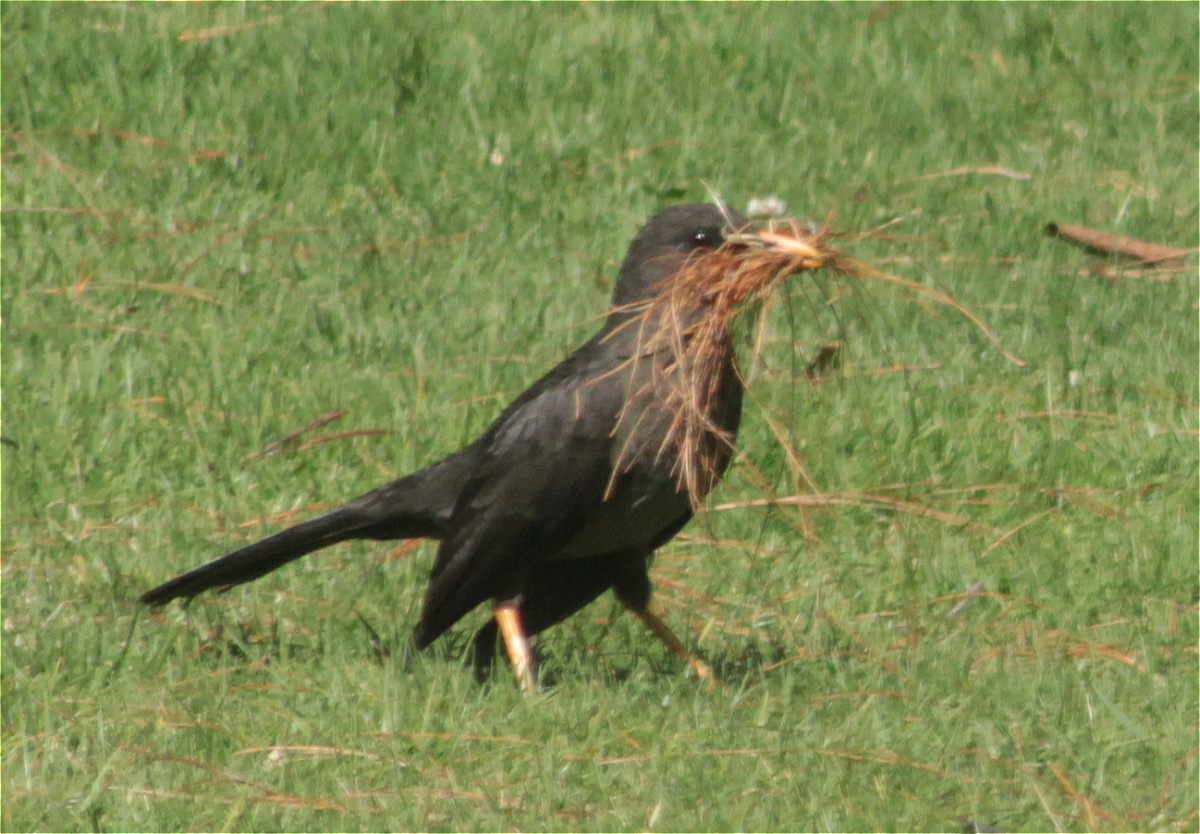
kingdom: Animalia
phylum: Chordata
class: Aves
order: Passeriformes
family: Turdidae
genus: Turdus
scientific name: Turdus fuscater
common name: Great thrush
